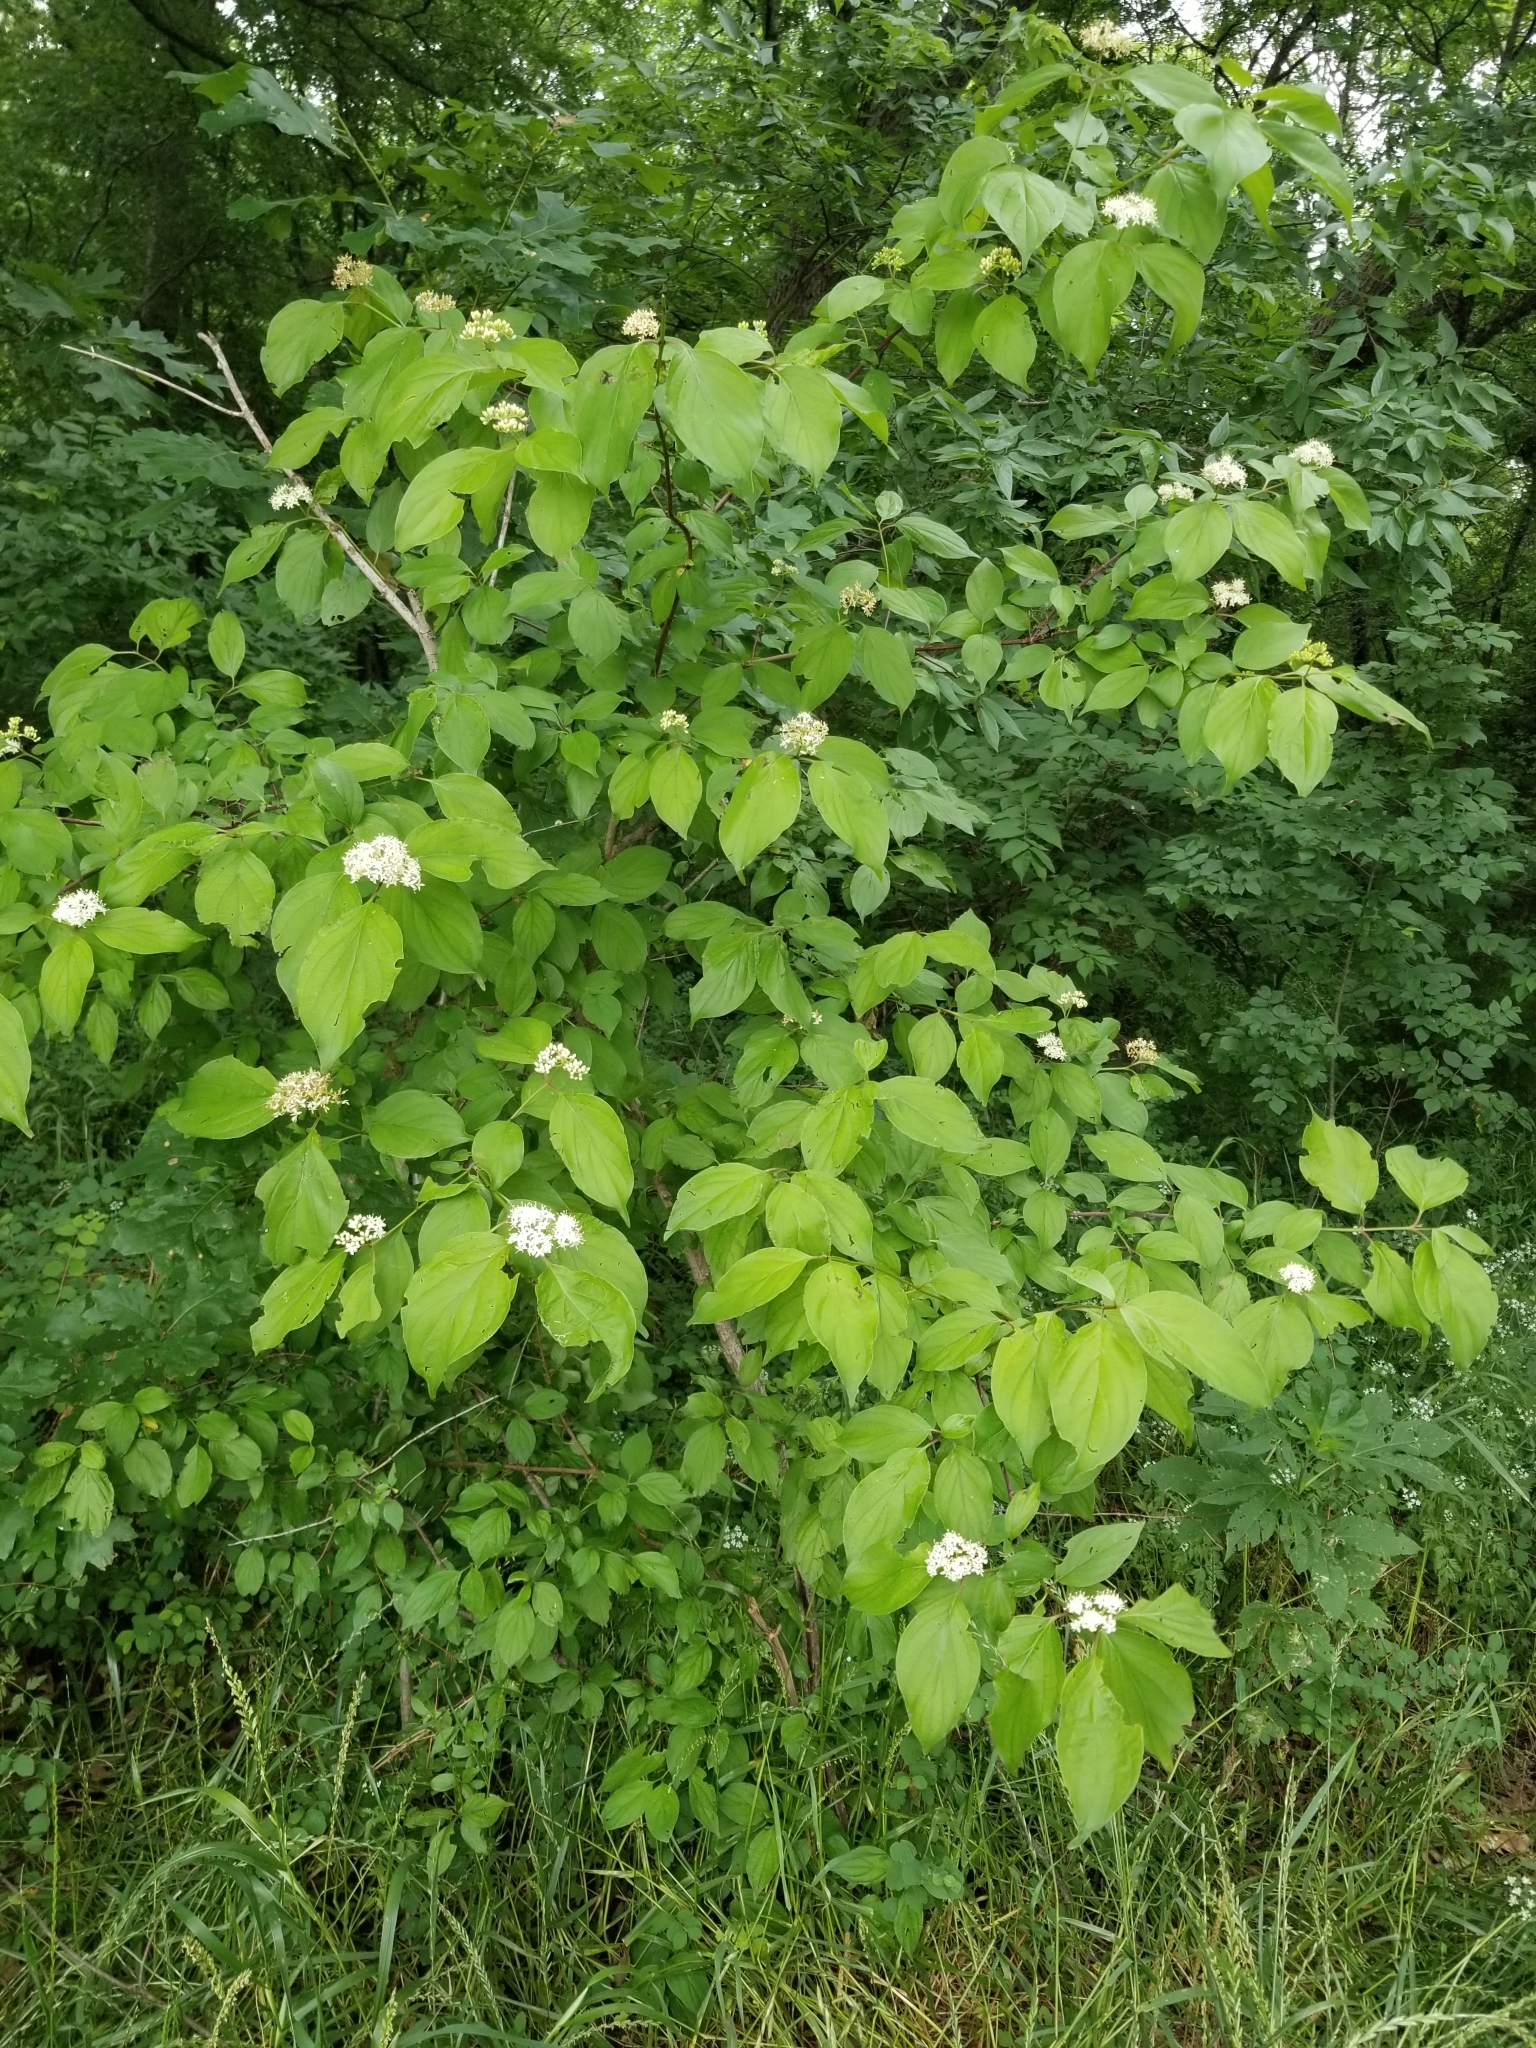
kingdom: Plantae
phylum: Tracheophyta
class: Magnoliopsida
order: Cornales
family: Cornaceae
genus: Cornus
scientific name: Cornus drummondii
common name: Rough-leaf dogwood
